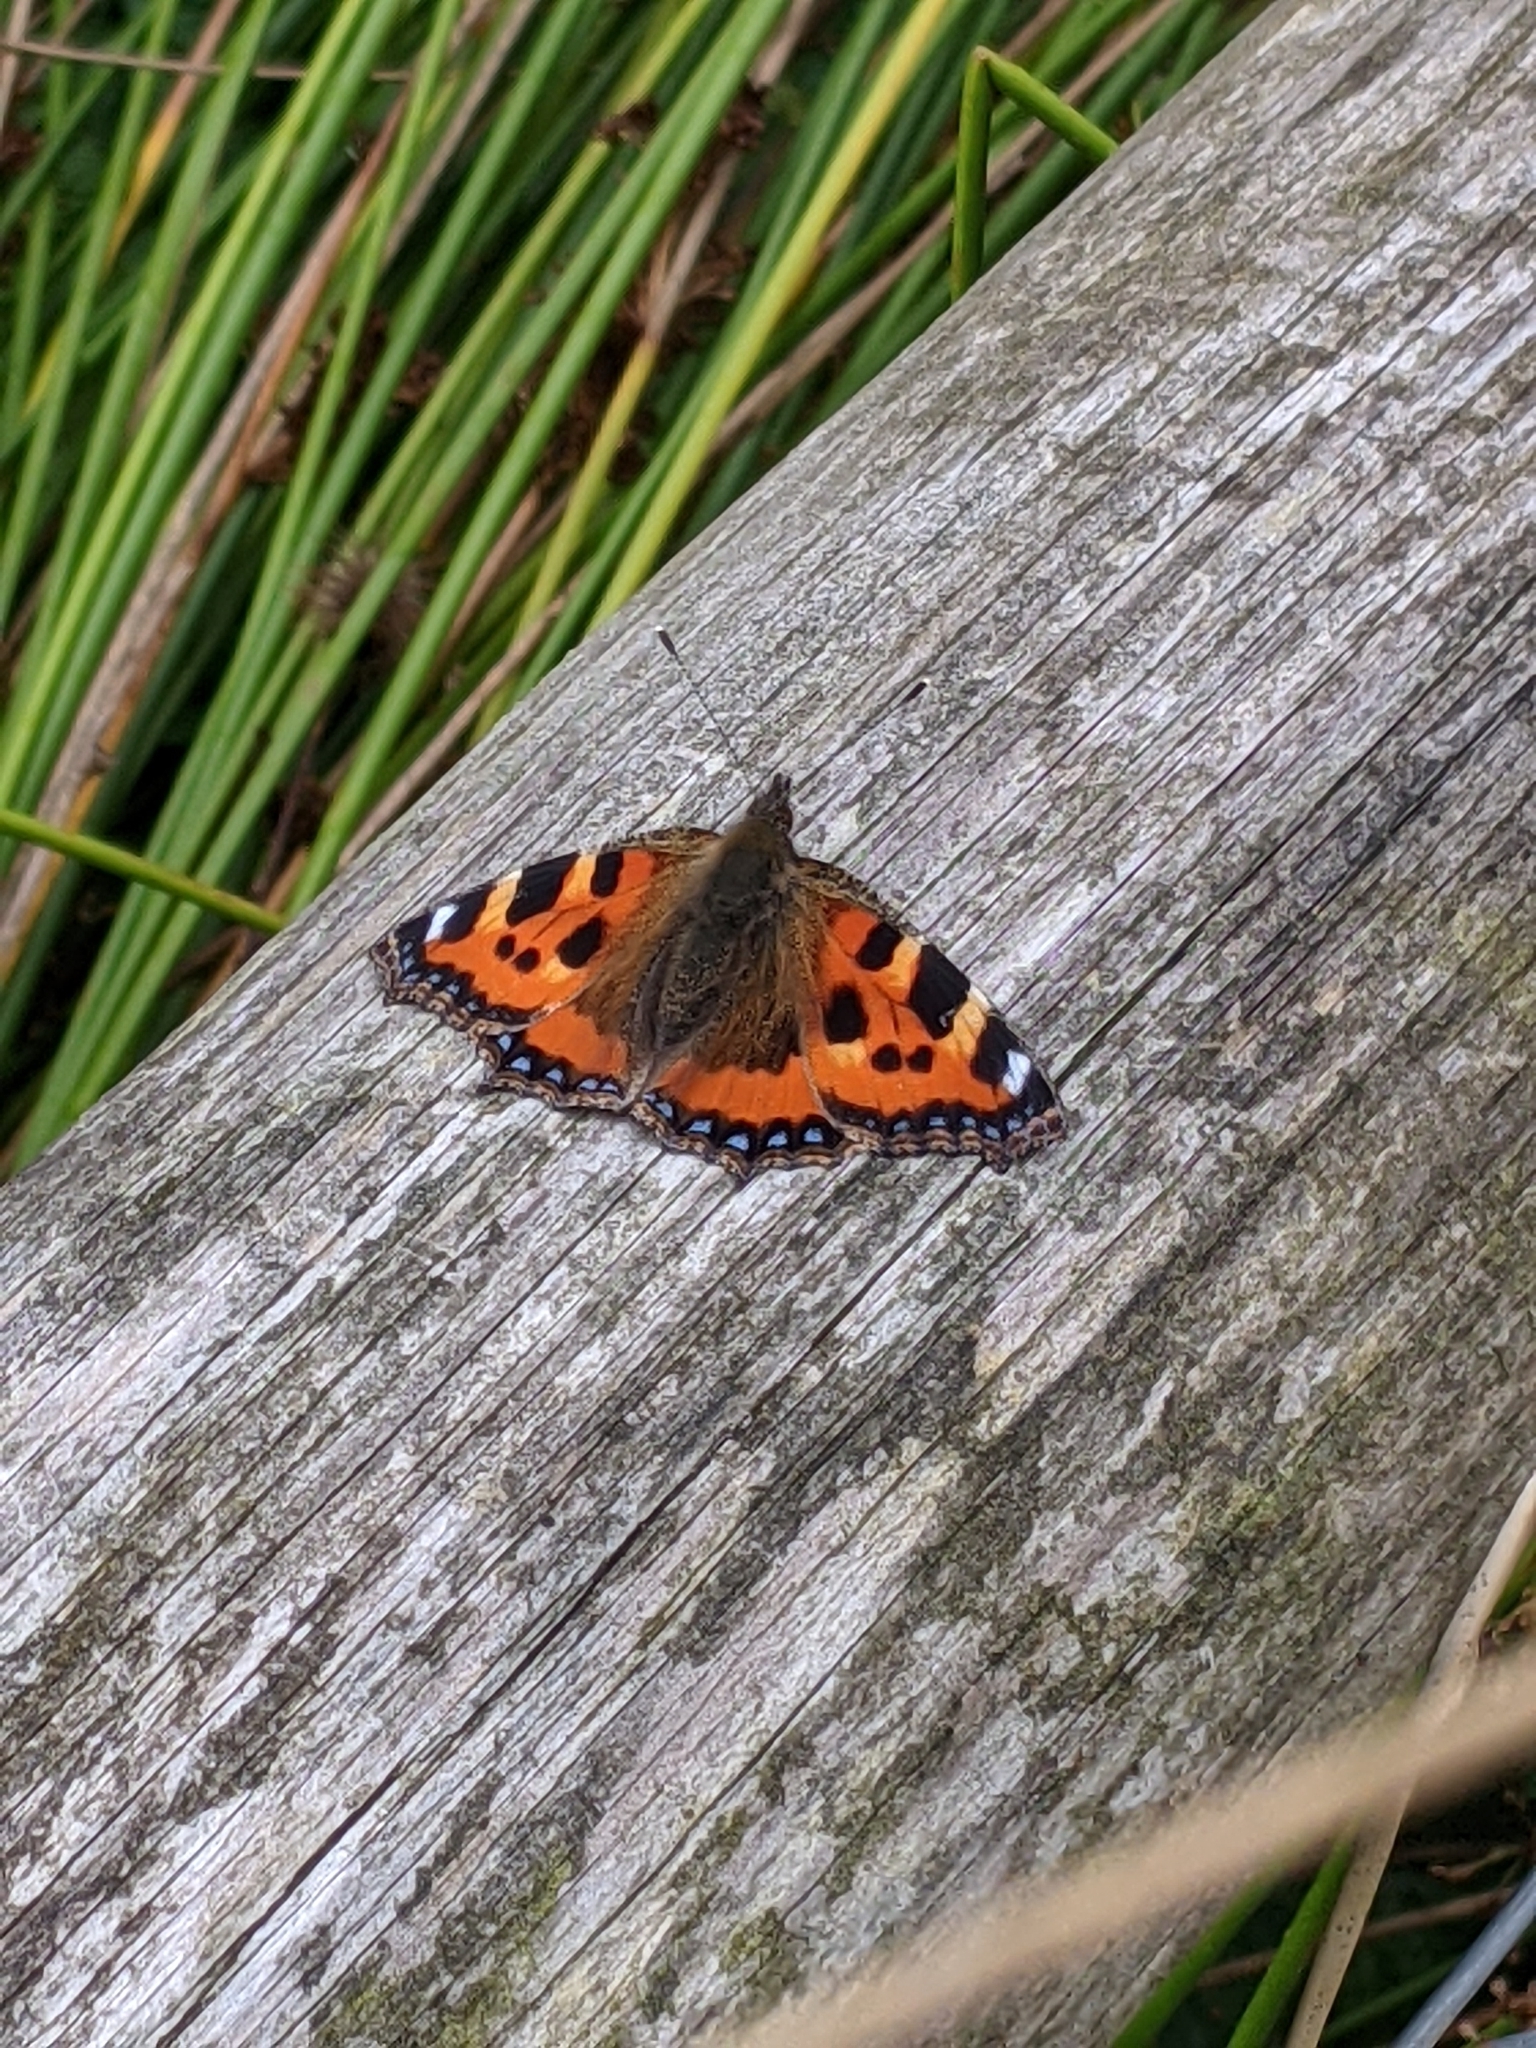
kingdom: Animalia
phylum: Arthropoda
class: Insecta
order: Lepidoptera
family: Nymphalidae
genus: Aglais
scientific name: Aglais urticae
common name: Small tortoiseshell
